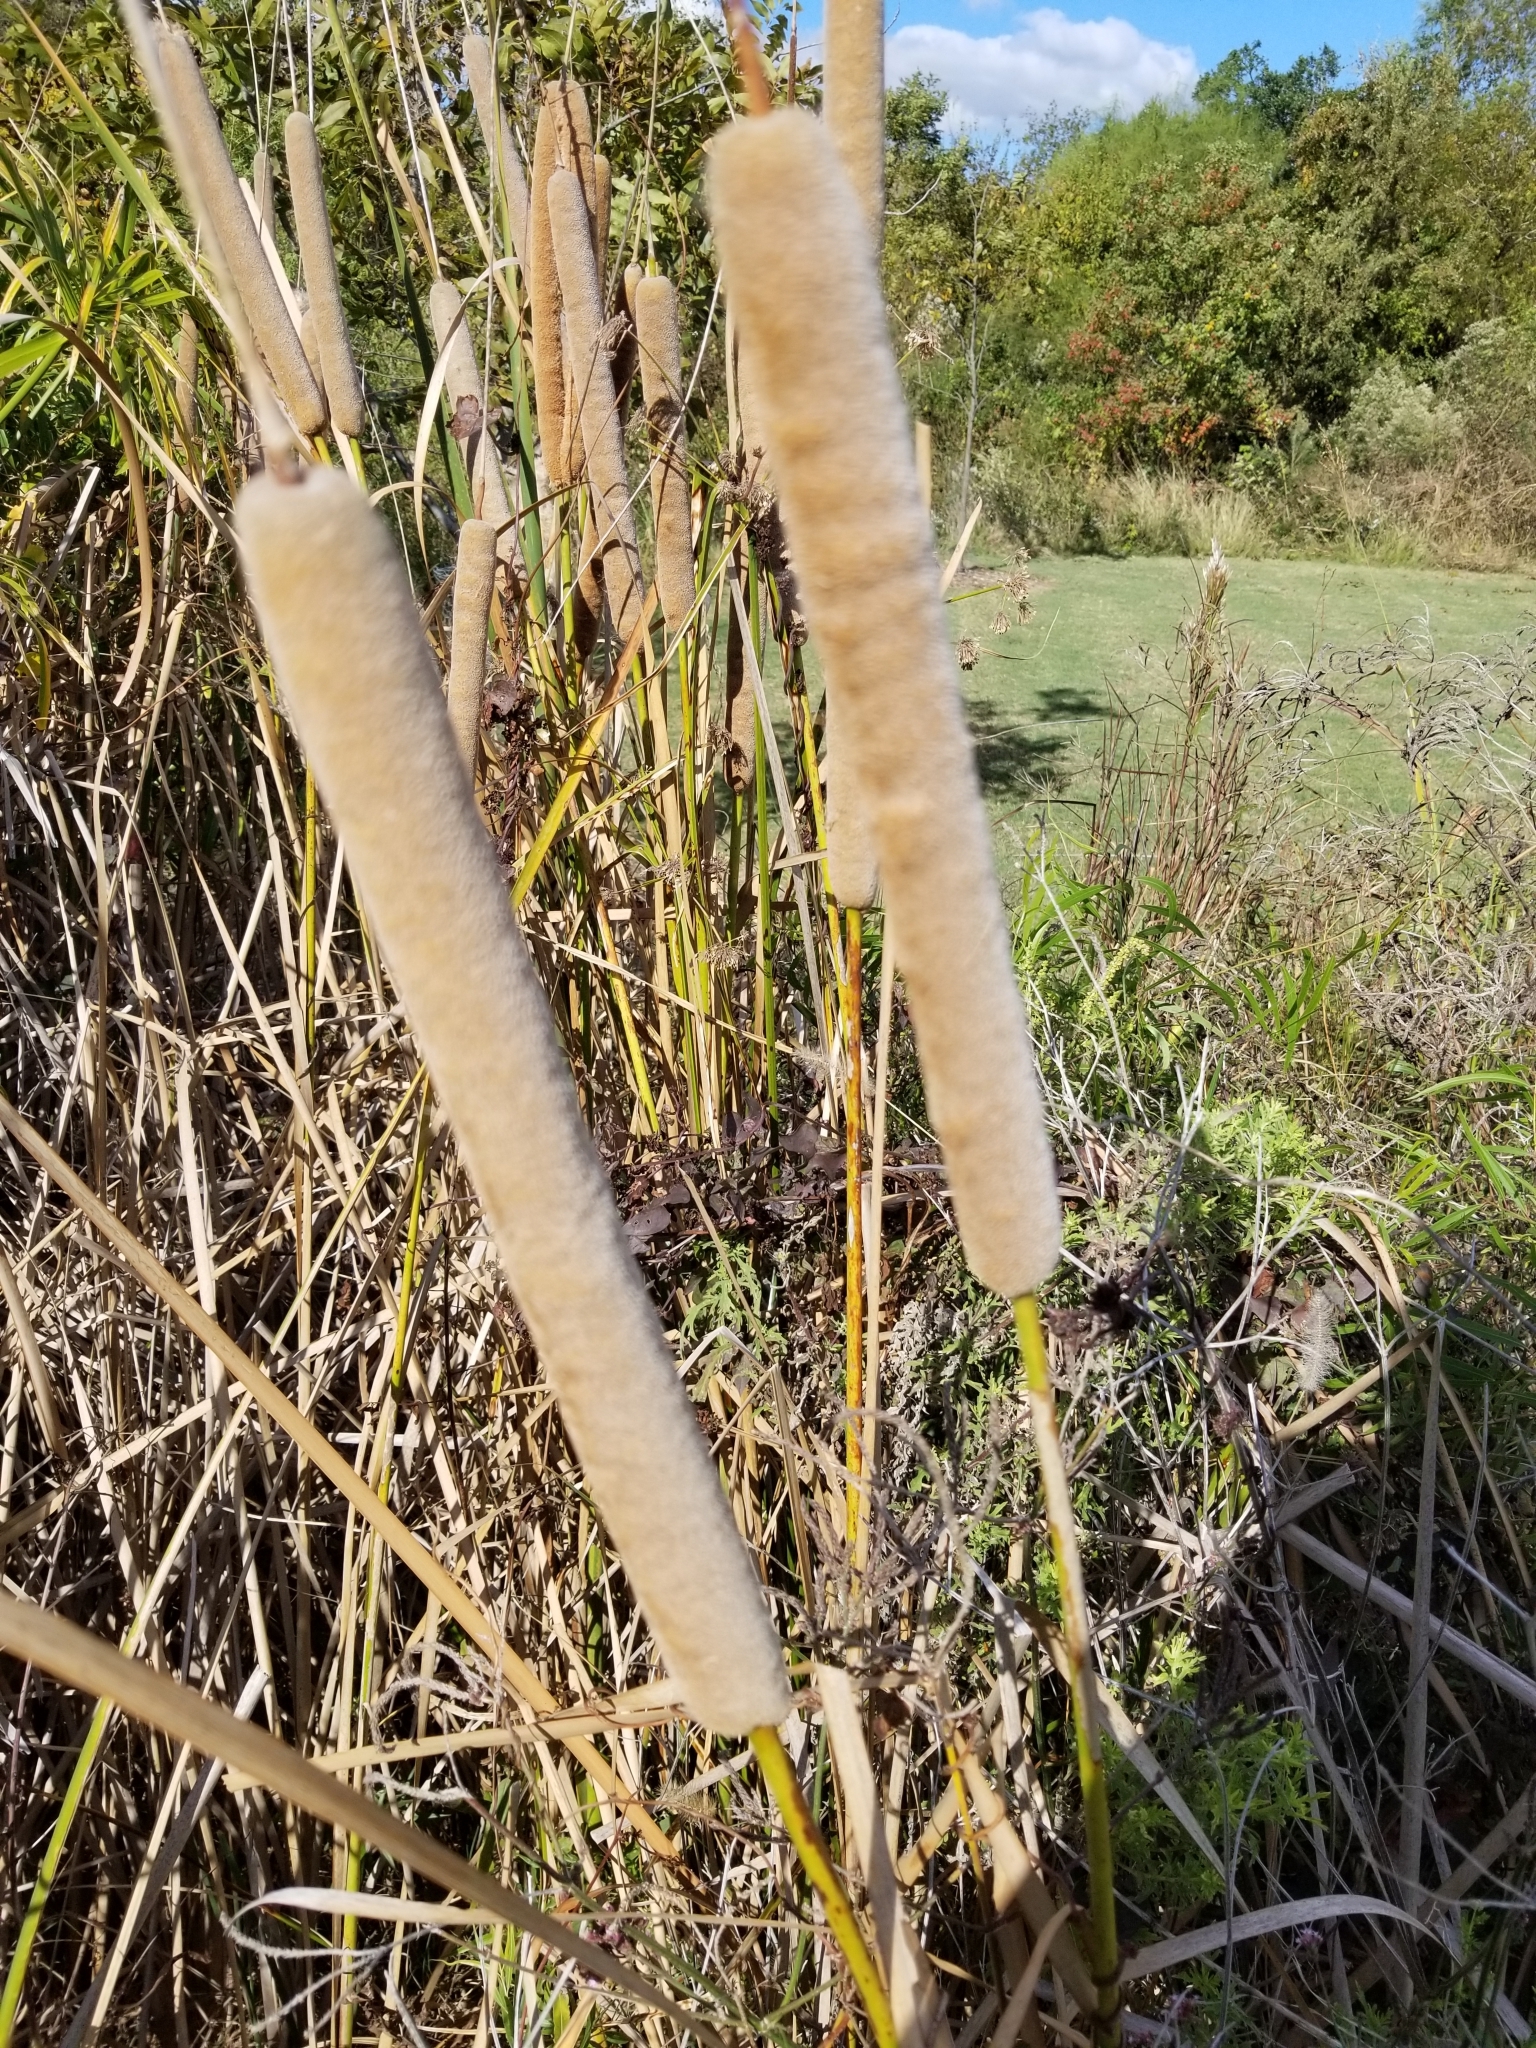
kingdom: Plantae
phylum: Tracheophyta
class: Liliopsida
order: Poales
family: Typhaceae
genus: Typha
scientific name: Typha domingensis
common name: Southern cattail
